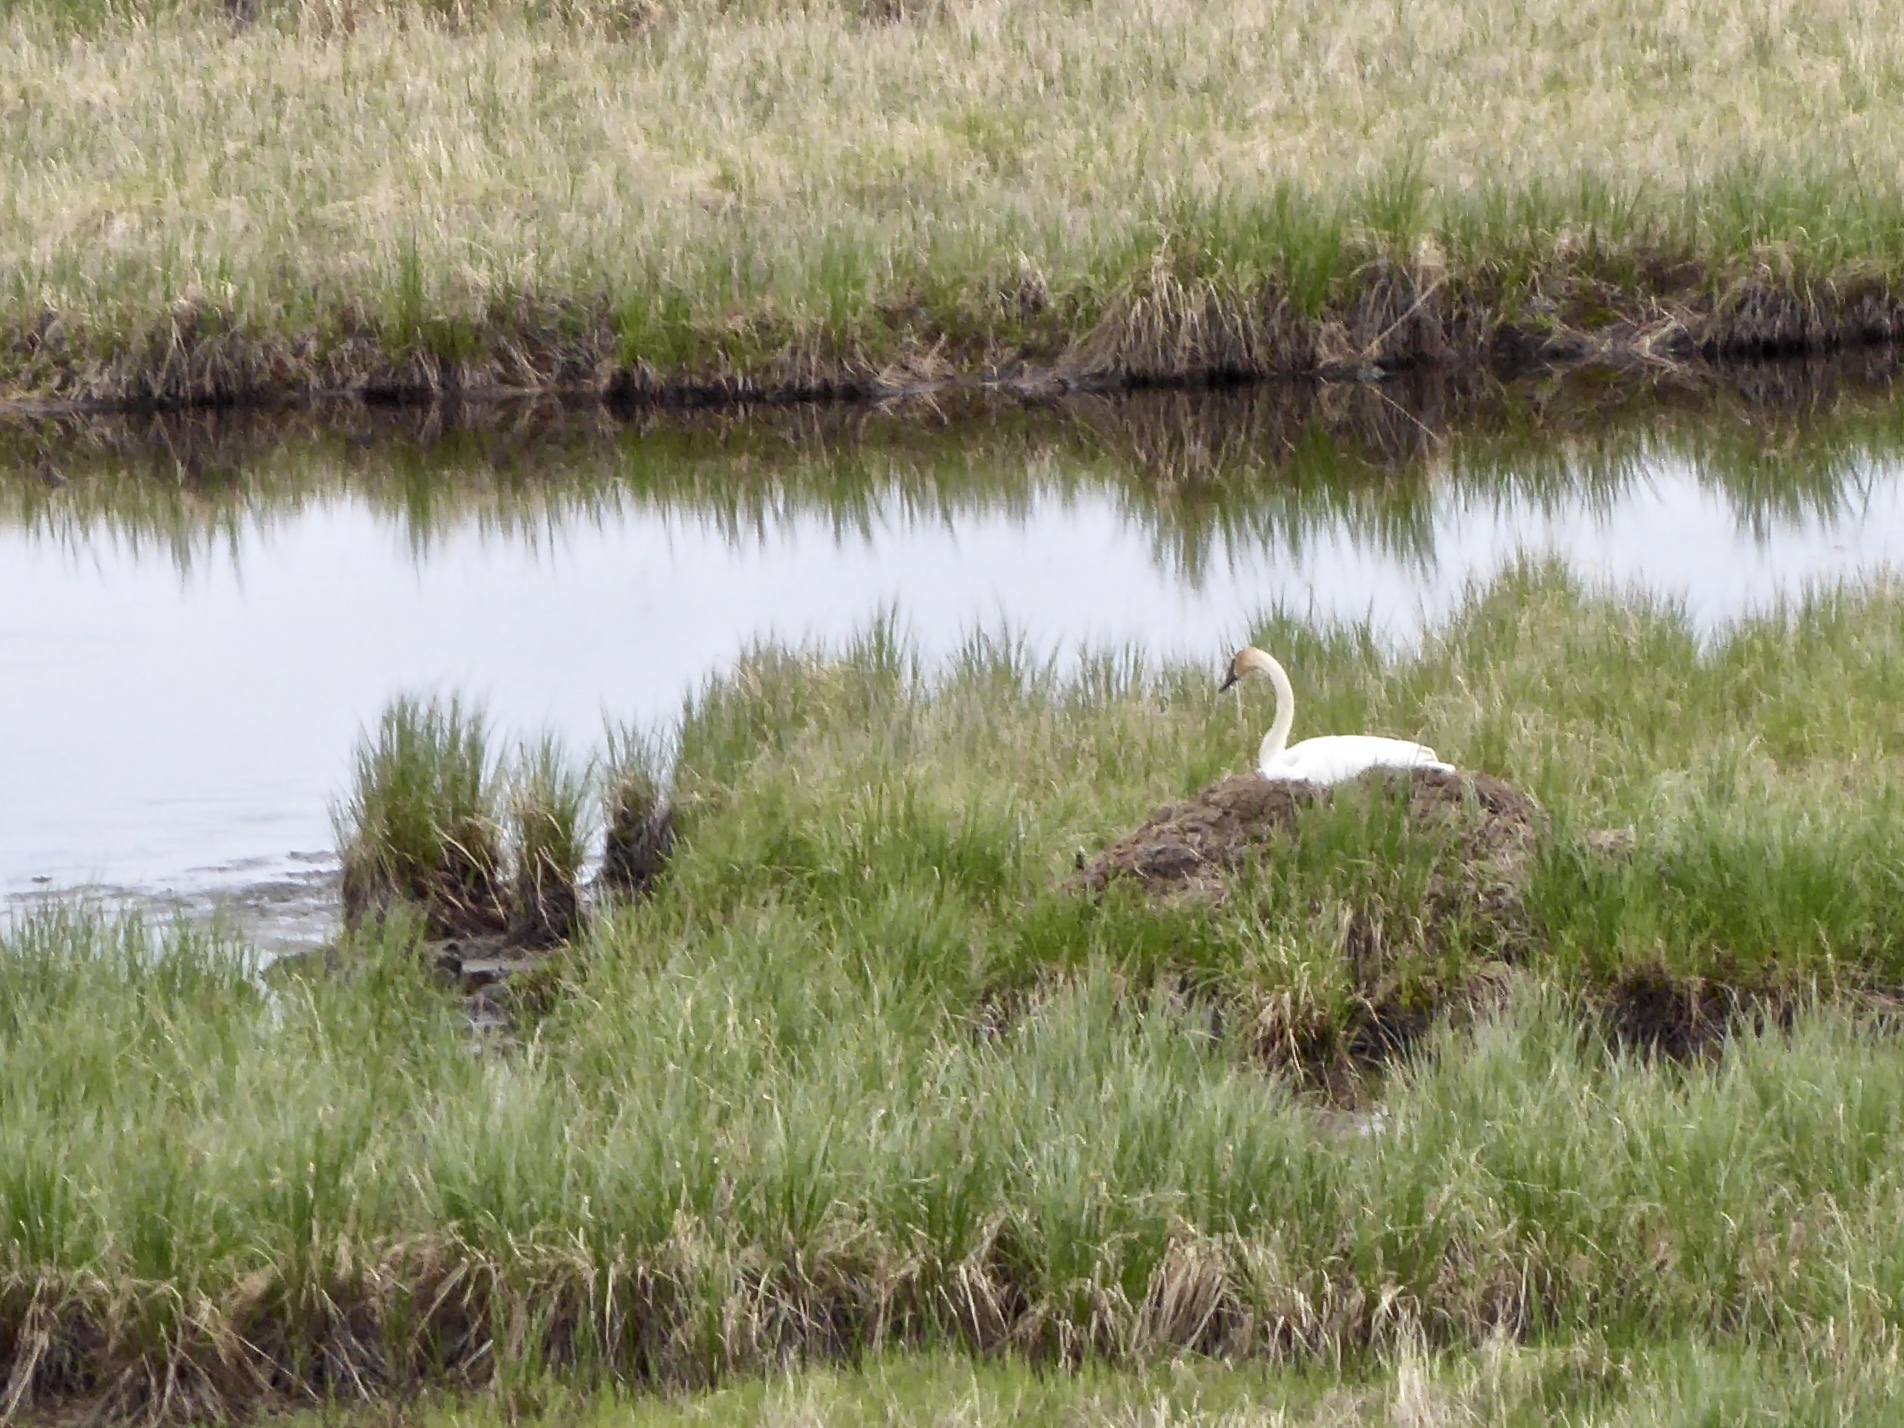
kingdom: Animalia
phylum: Chordata
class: Aves
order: Anseriformes
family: Anatidae
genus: Cygnus
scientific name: Cygnus buccinator
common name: Trumpeter swan
